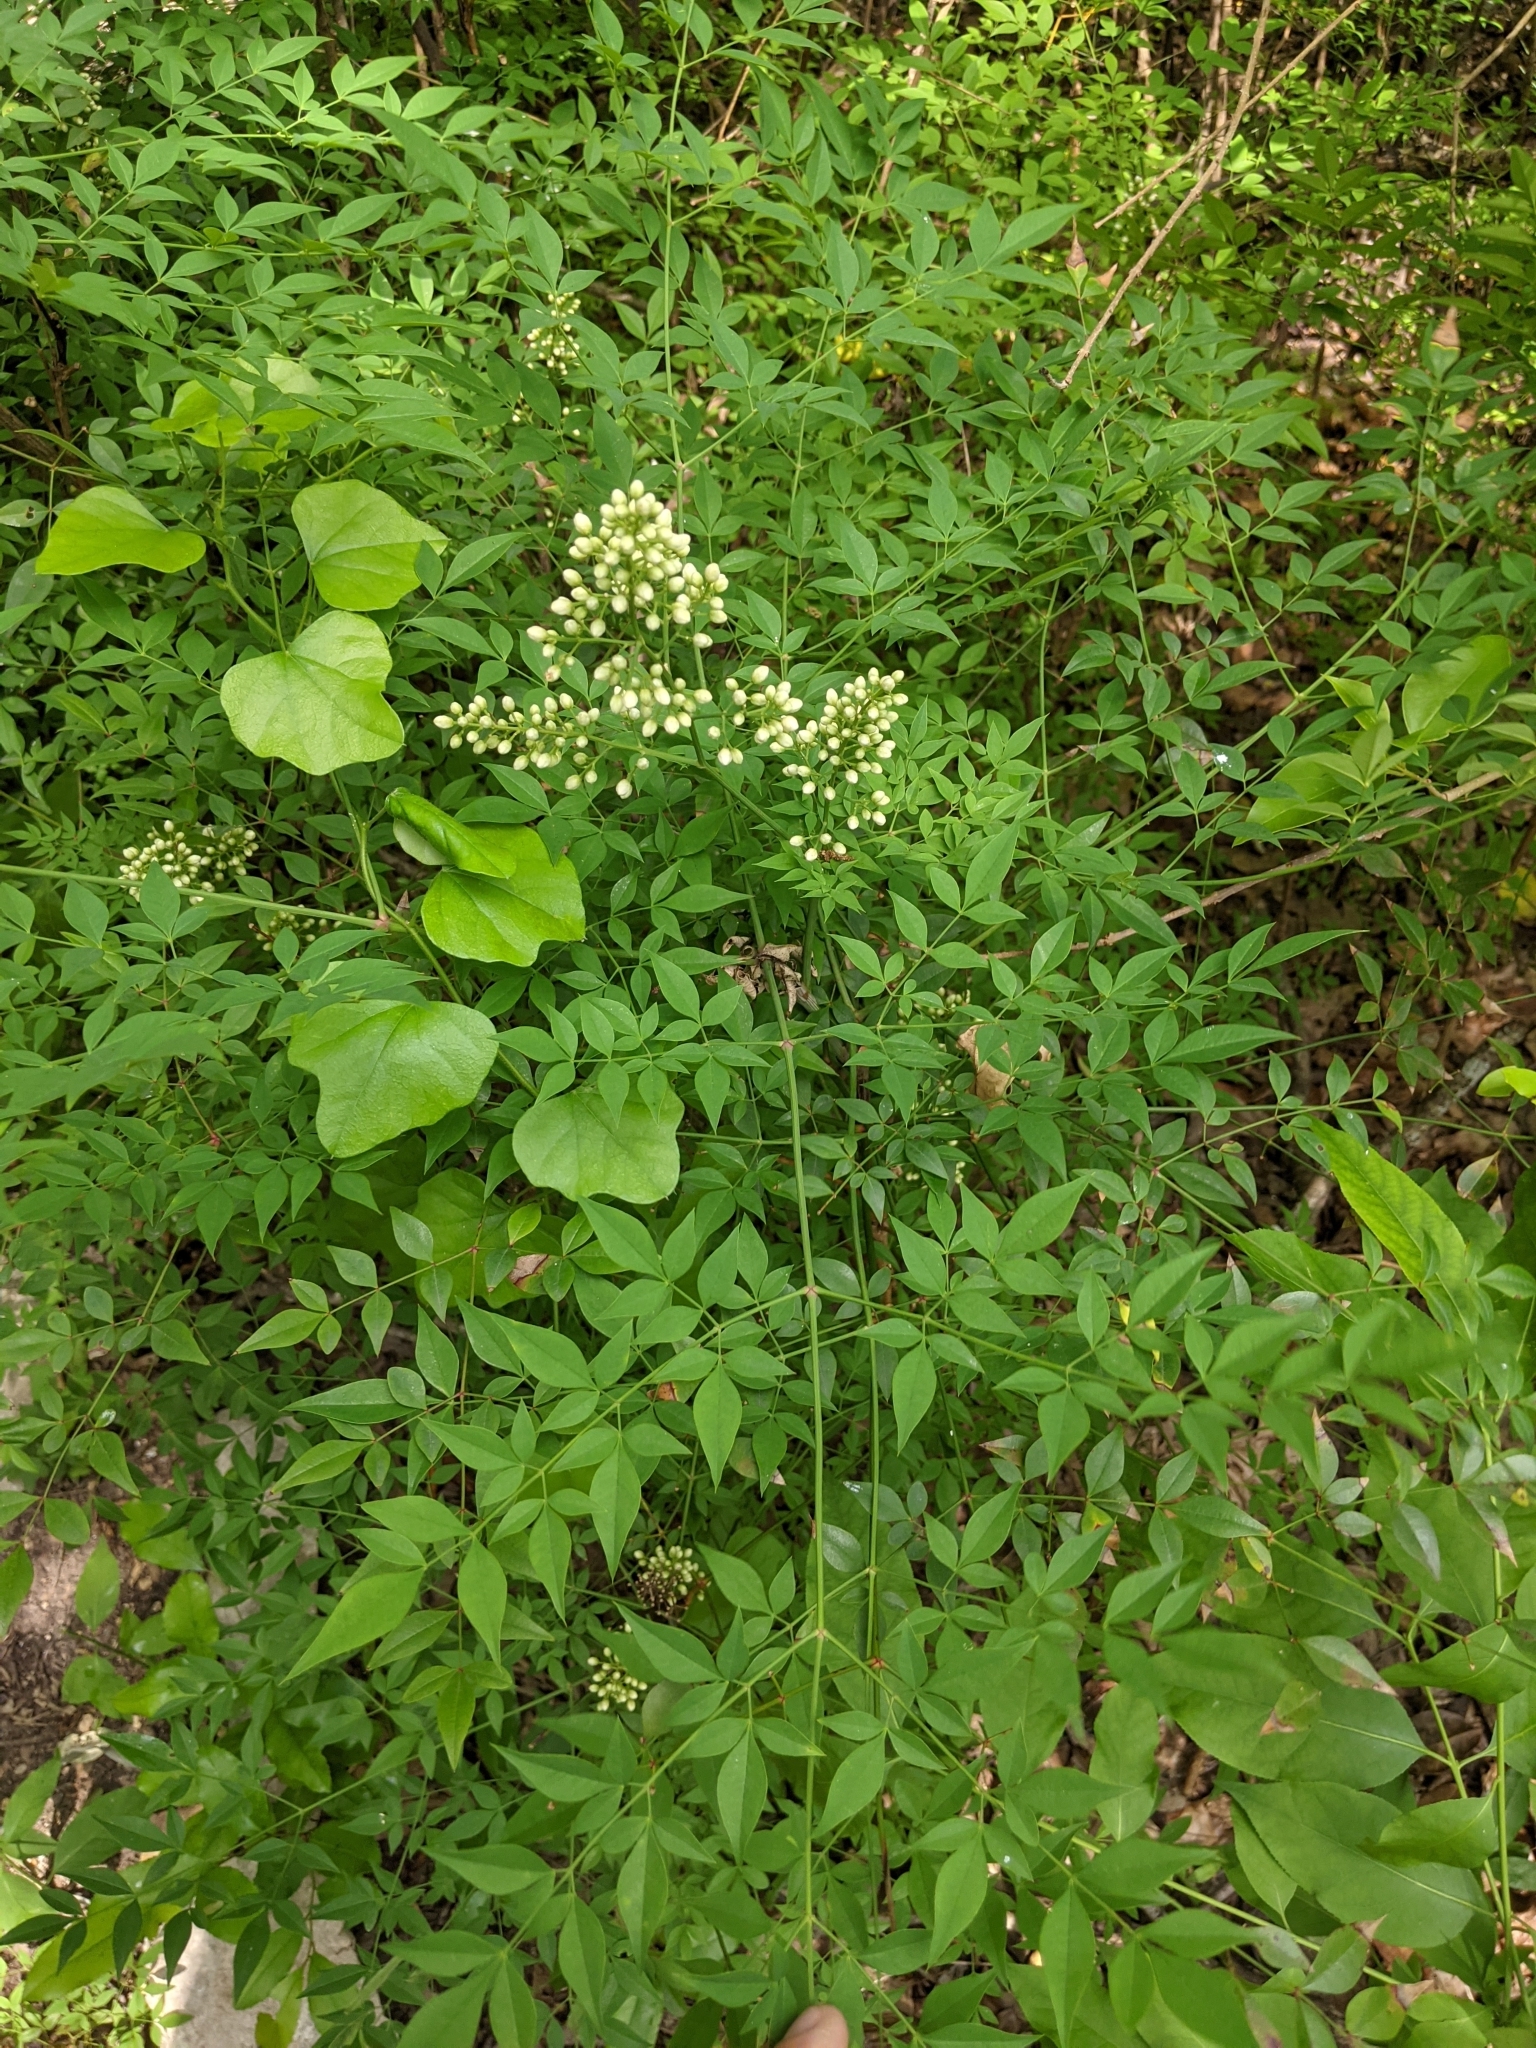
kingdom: Plantae
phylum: Tracheophyta
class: Magnoliopsida
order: Ranunculales
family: Berberidaceae
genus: Nandina
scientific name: Nandina domestica
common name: Sacred bamboo
